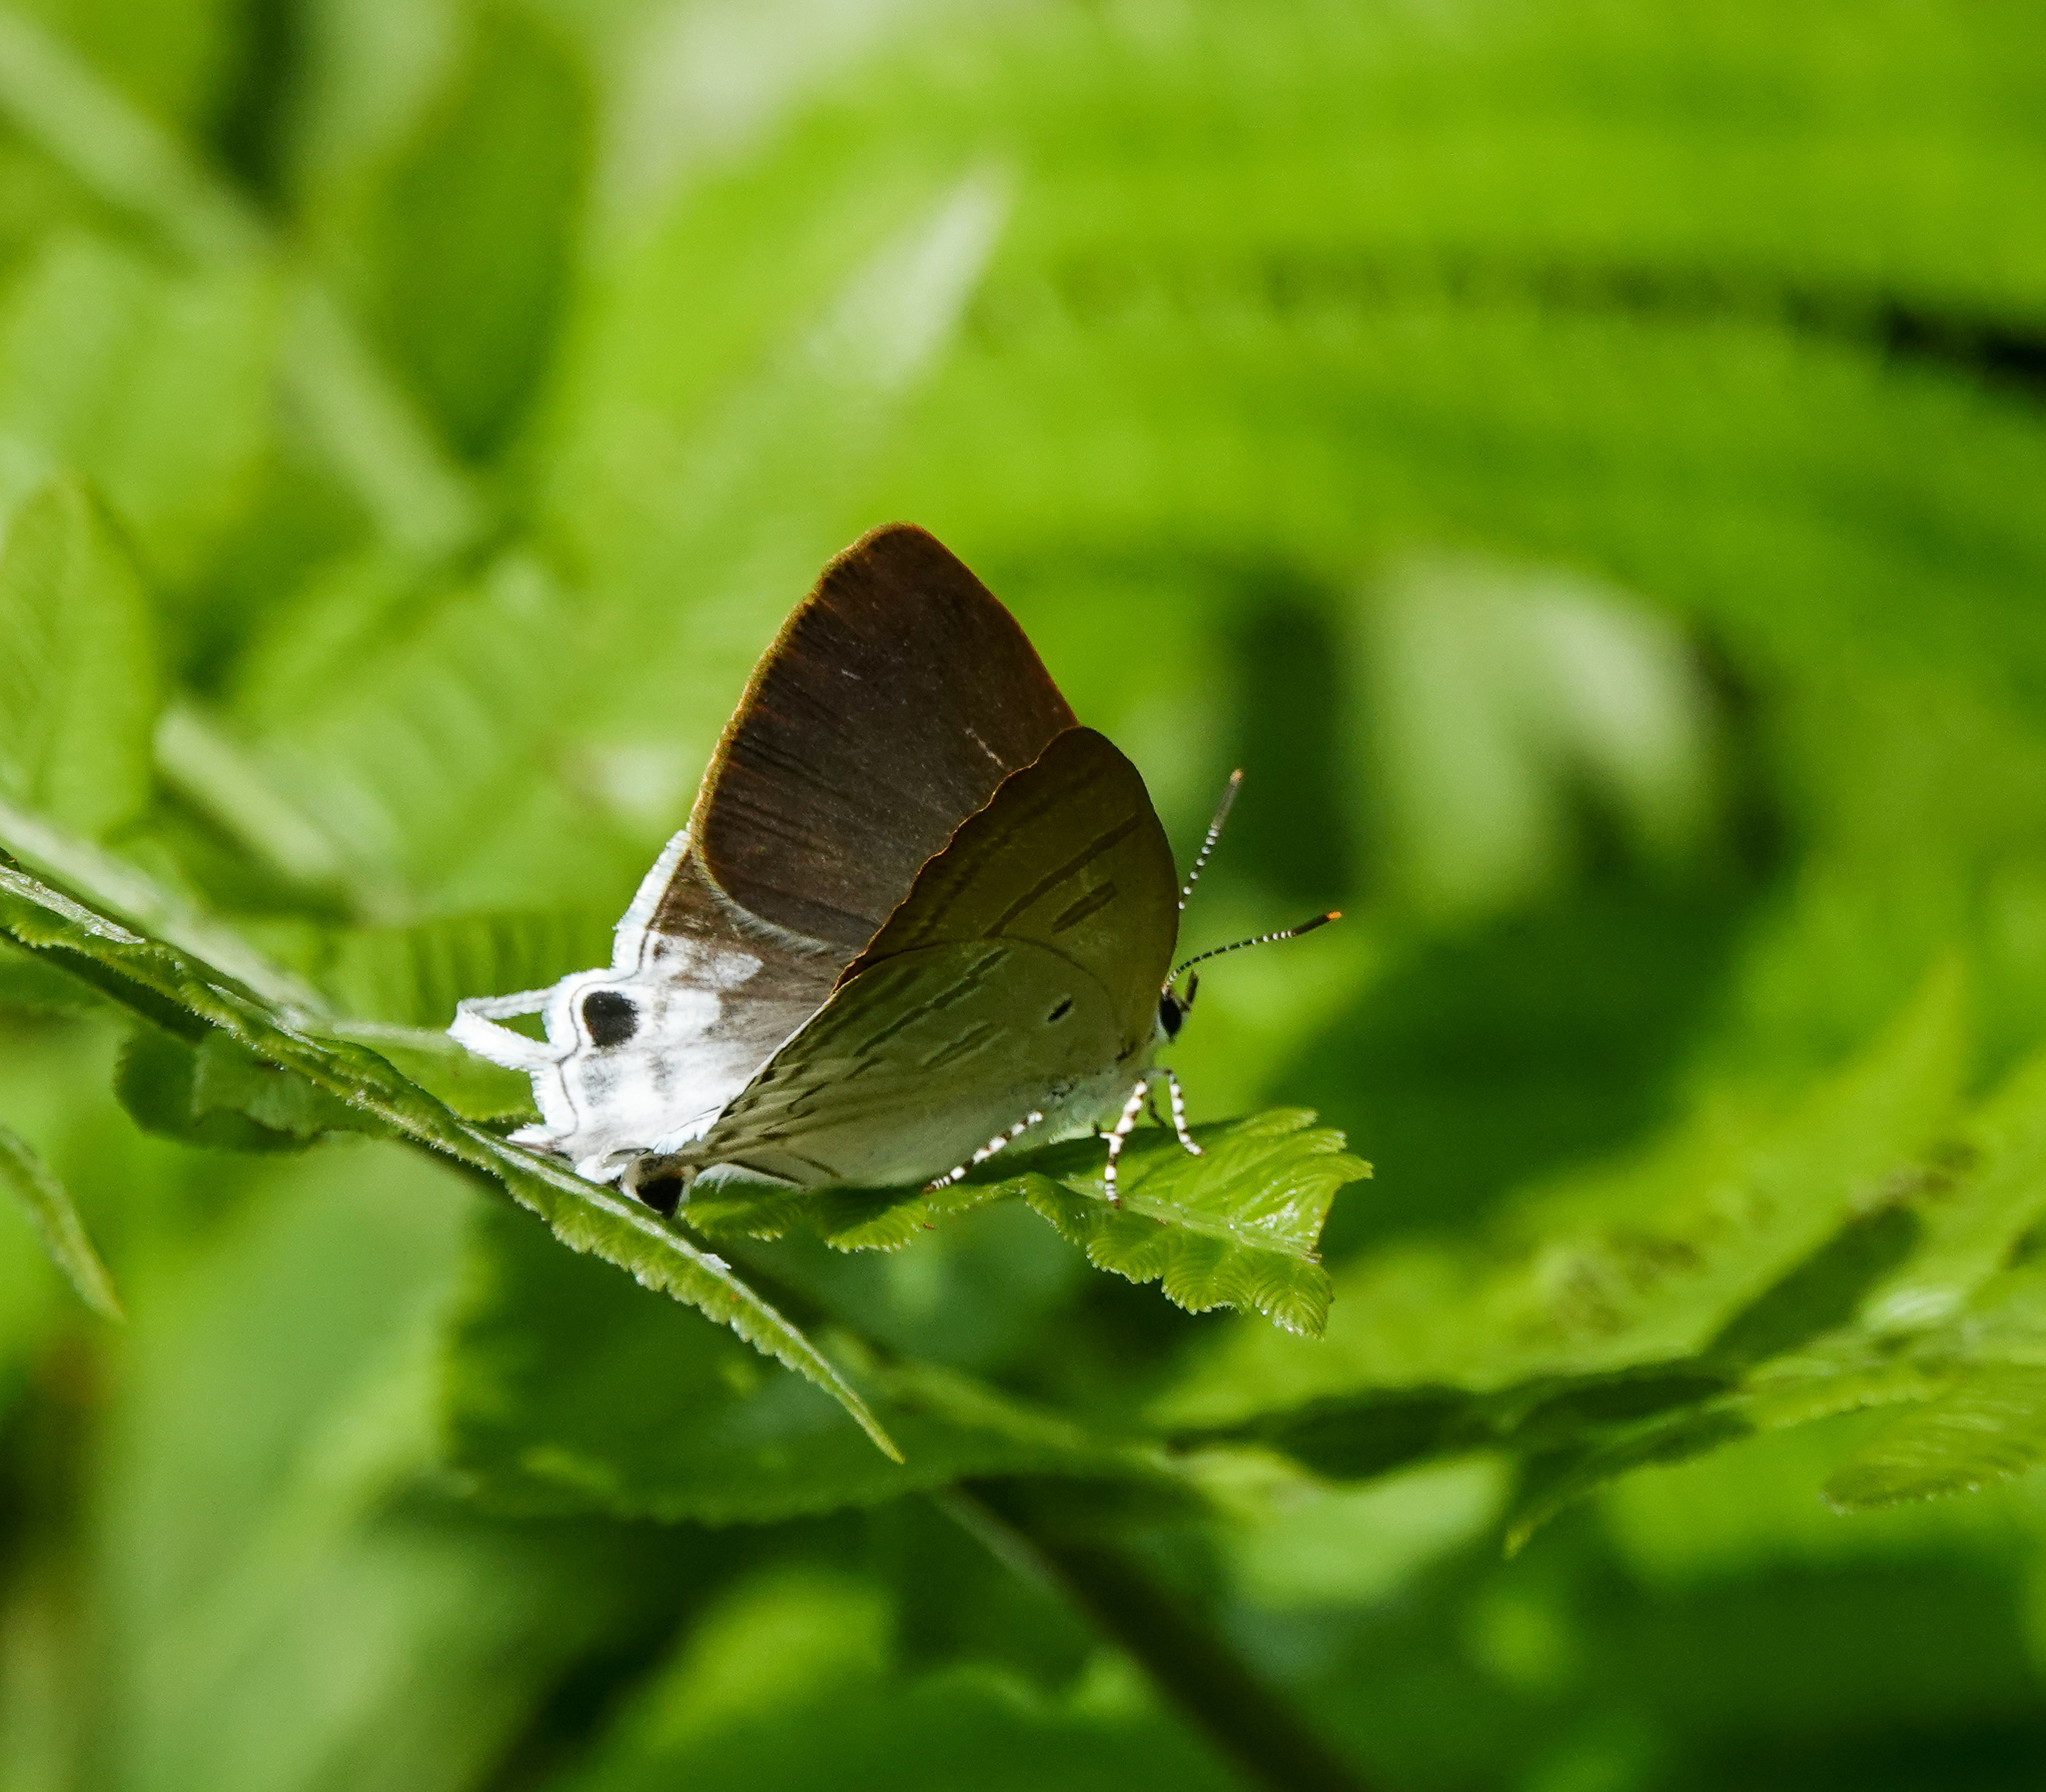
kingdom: Animalia
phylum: Arthropoda
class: Insecta
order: Lepidoptera
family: Lycaenidae
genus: Zeltus
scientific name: Zeltus amasa
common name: Fluffy tit
